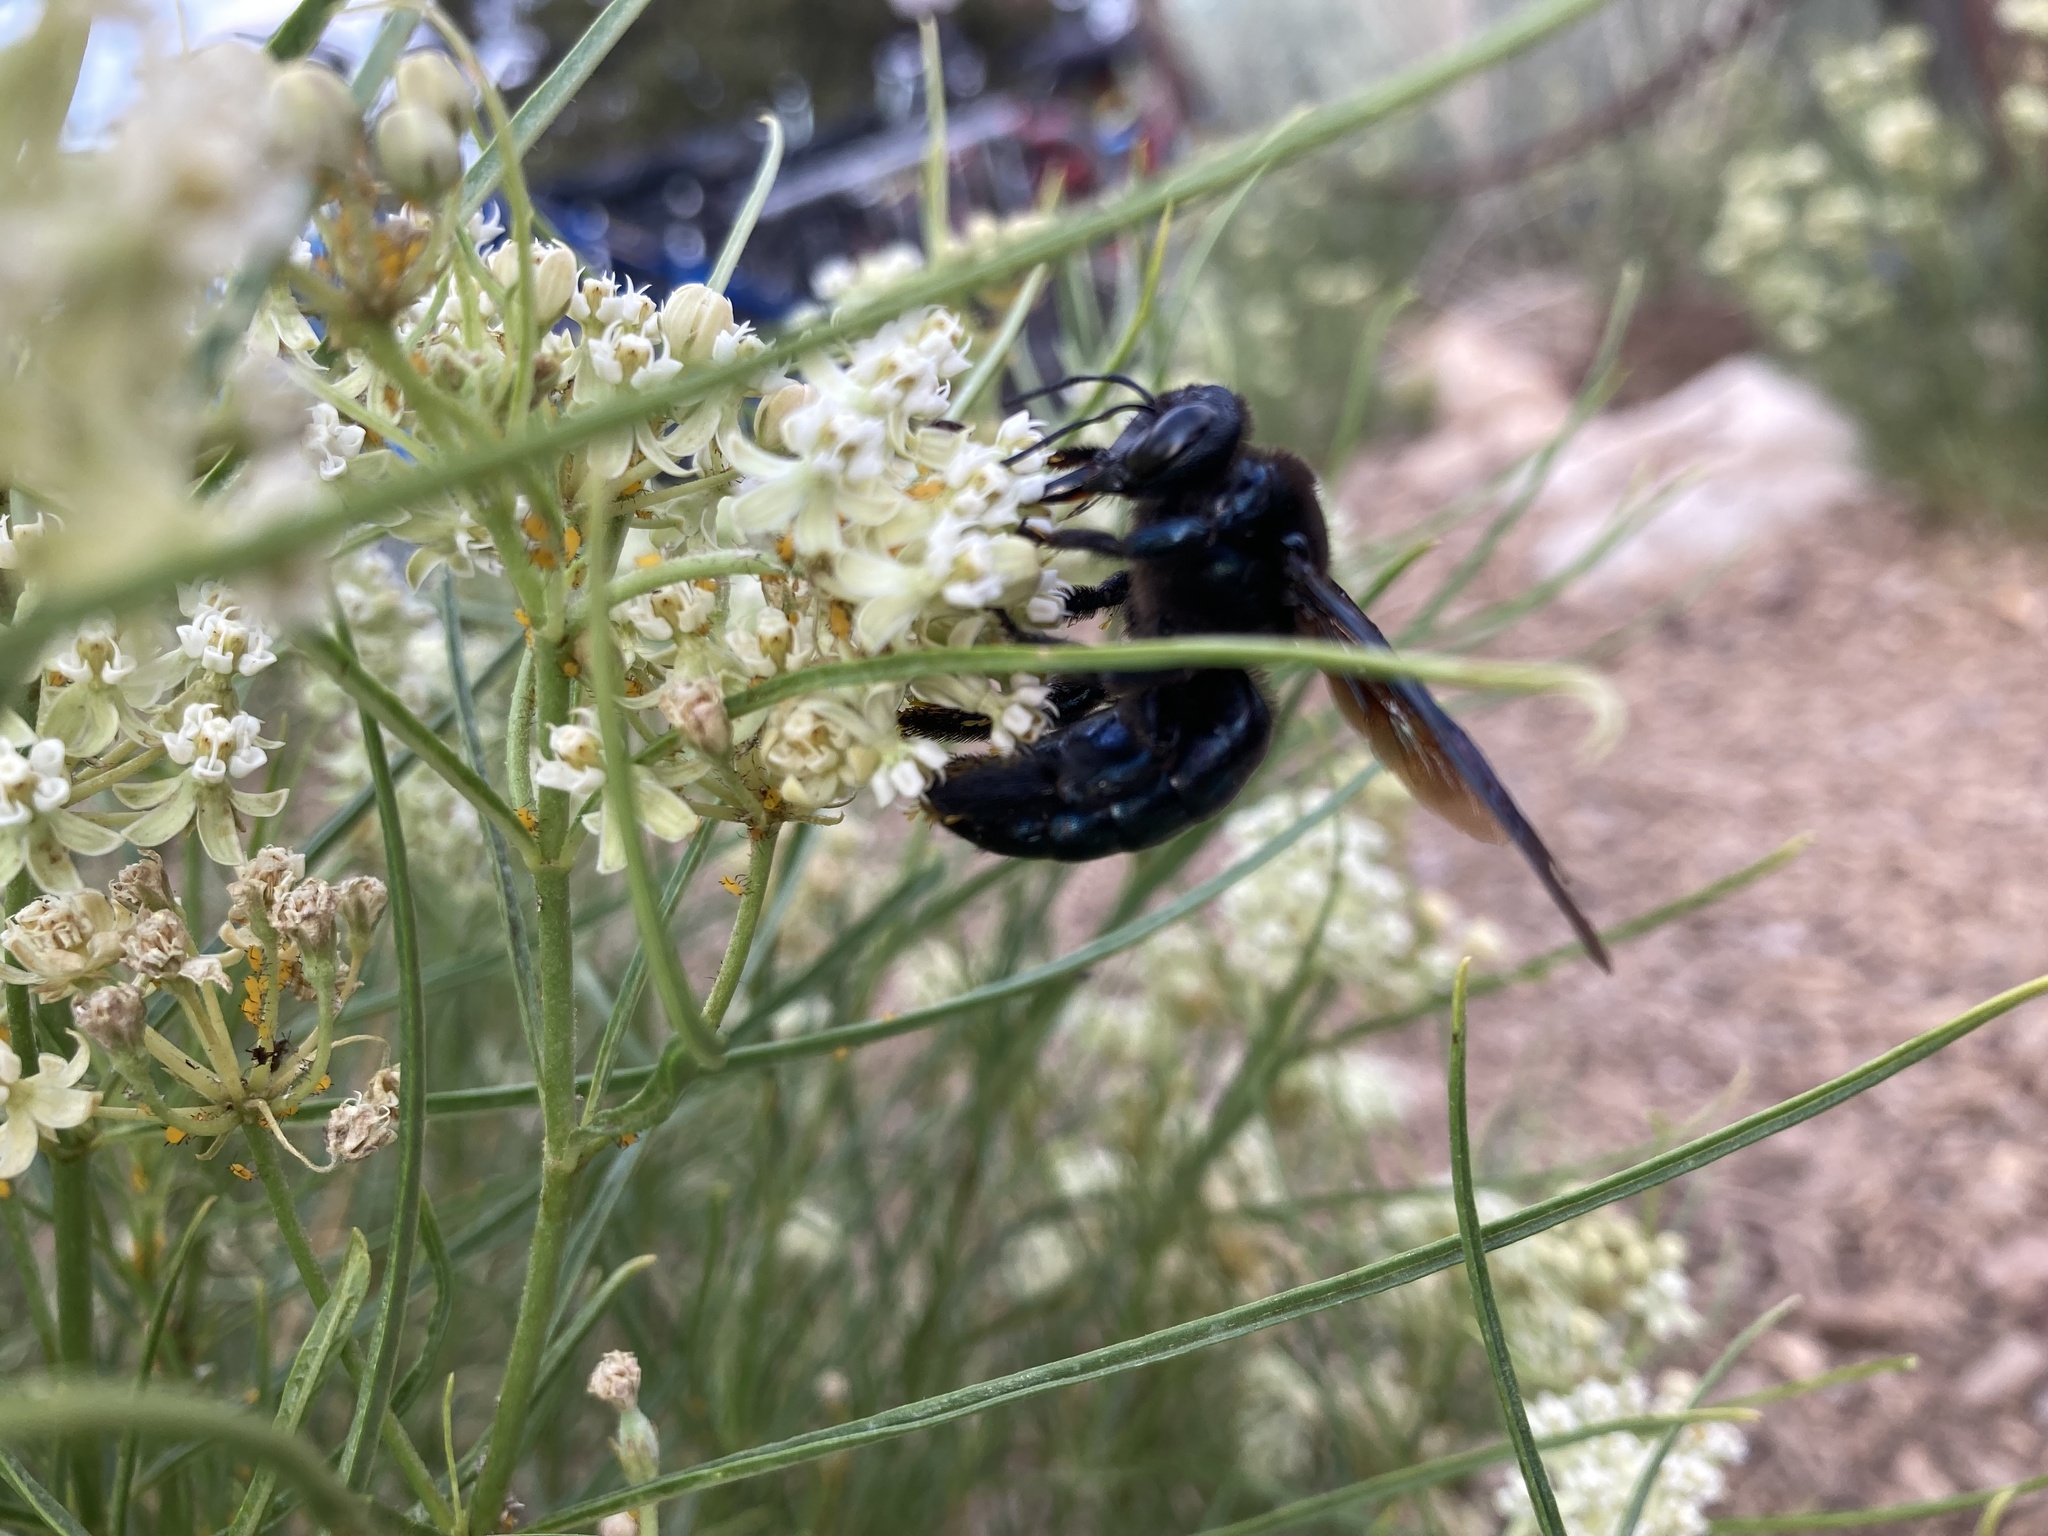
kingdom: Animalia
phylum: Arthropoda
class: Insecta
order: Hymenoptera
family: Apidae
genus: Xylocopa
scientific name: Xylocopa californica
